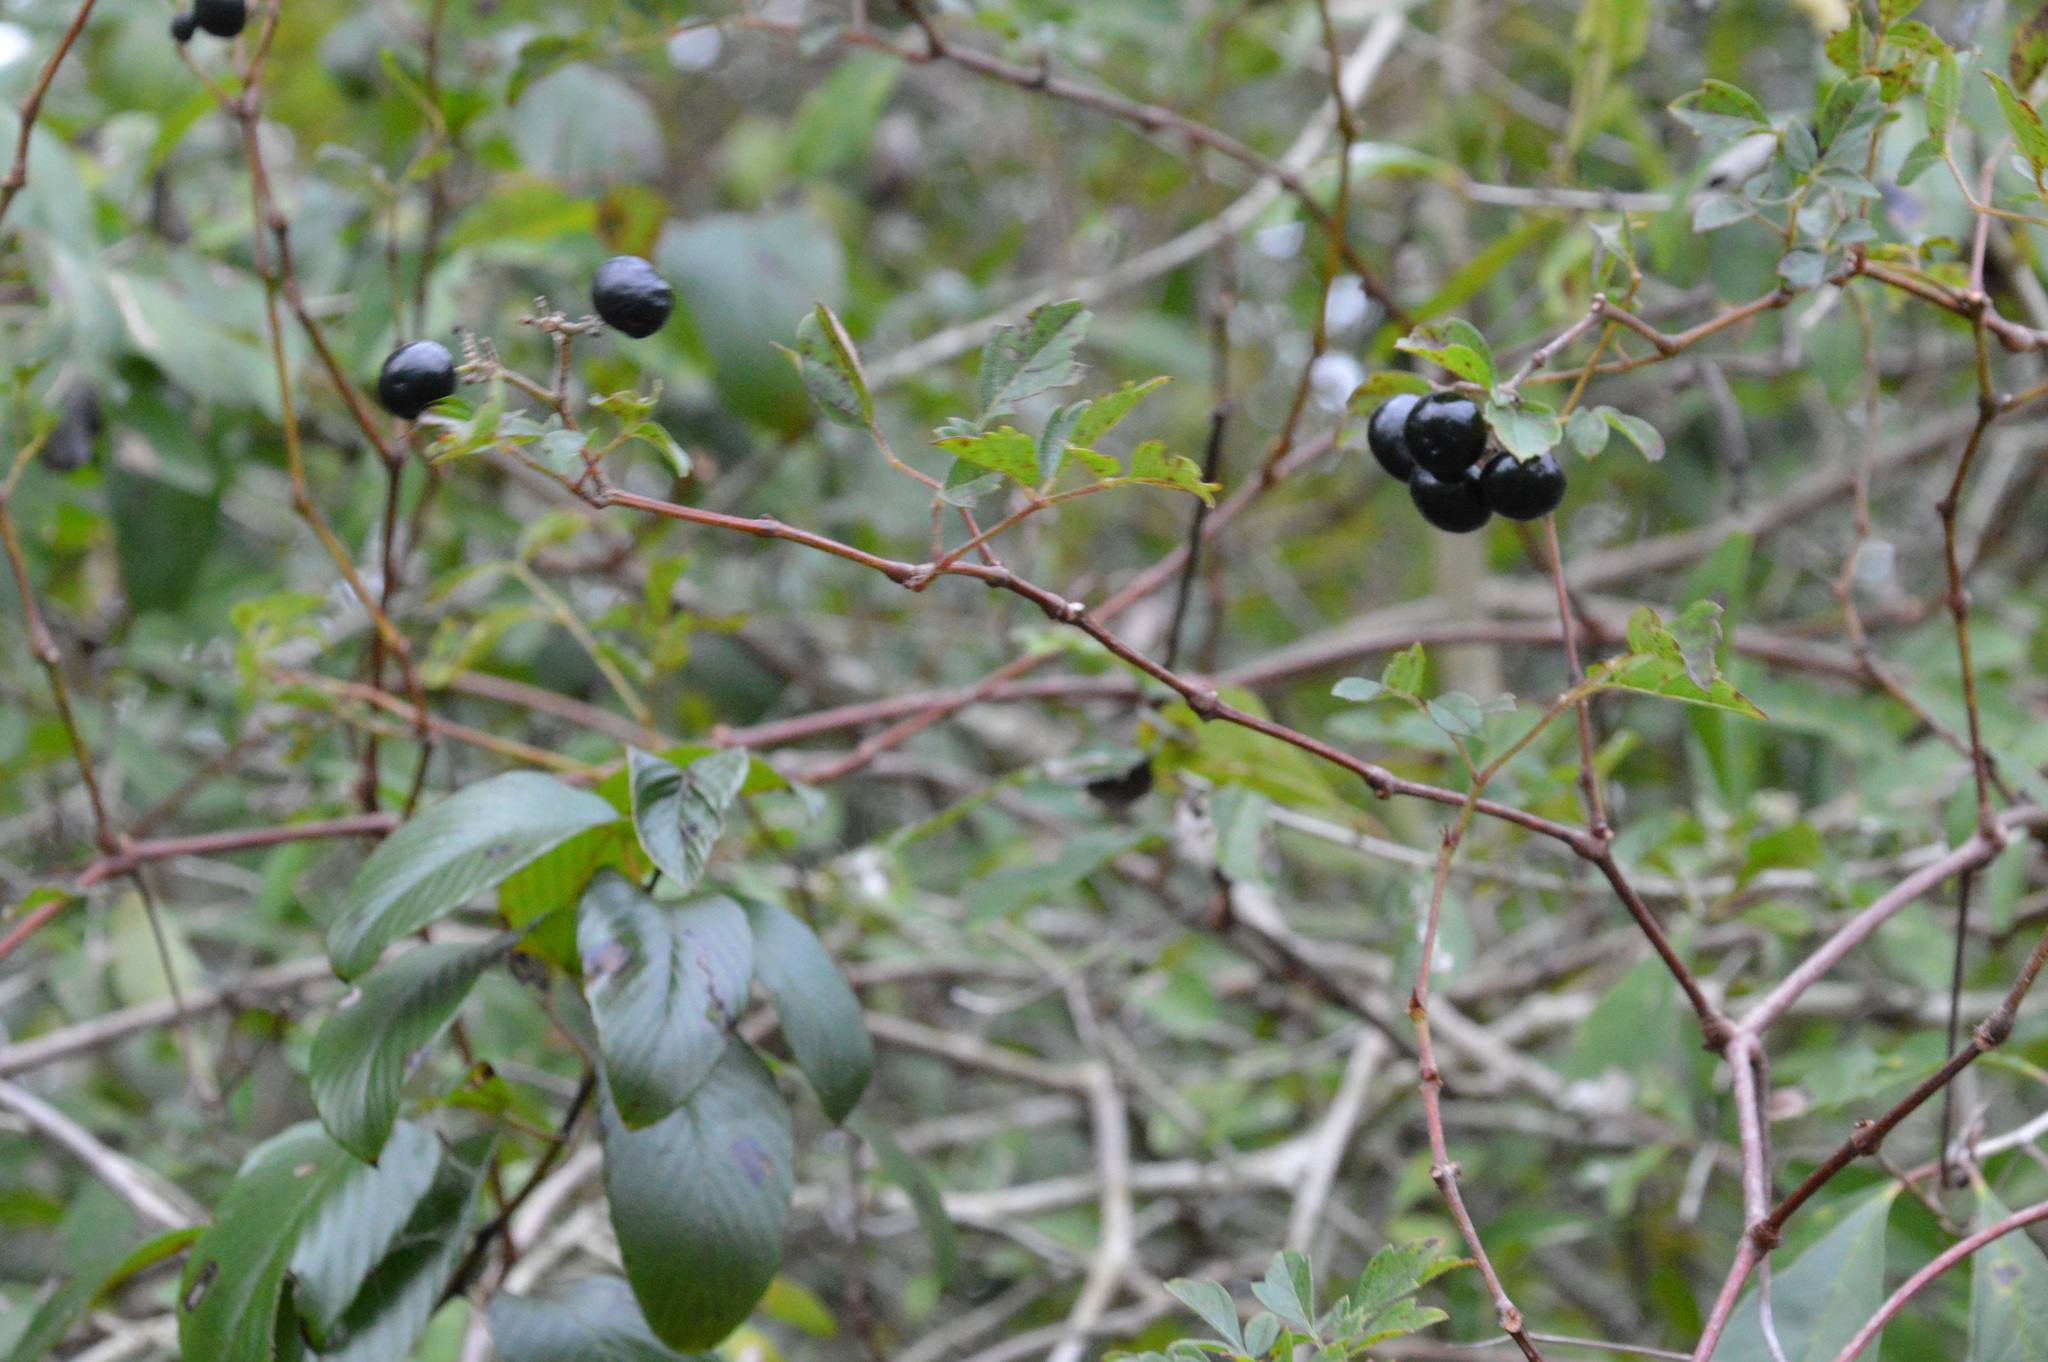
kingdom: Plantae
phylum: Tracheophyta
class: Magnoliopsida
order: Vitales
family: Vitaceae
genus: Nekemias
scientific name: Nekemias arborea
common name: Peppervine
